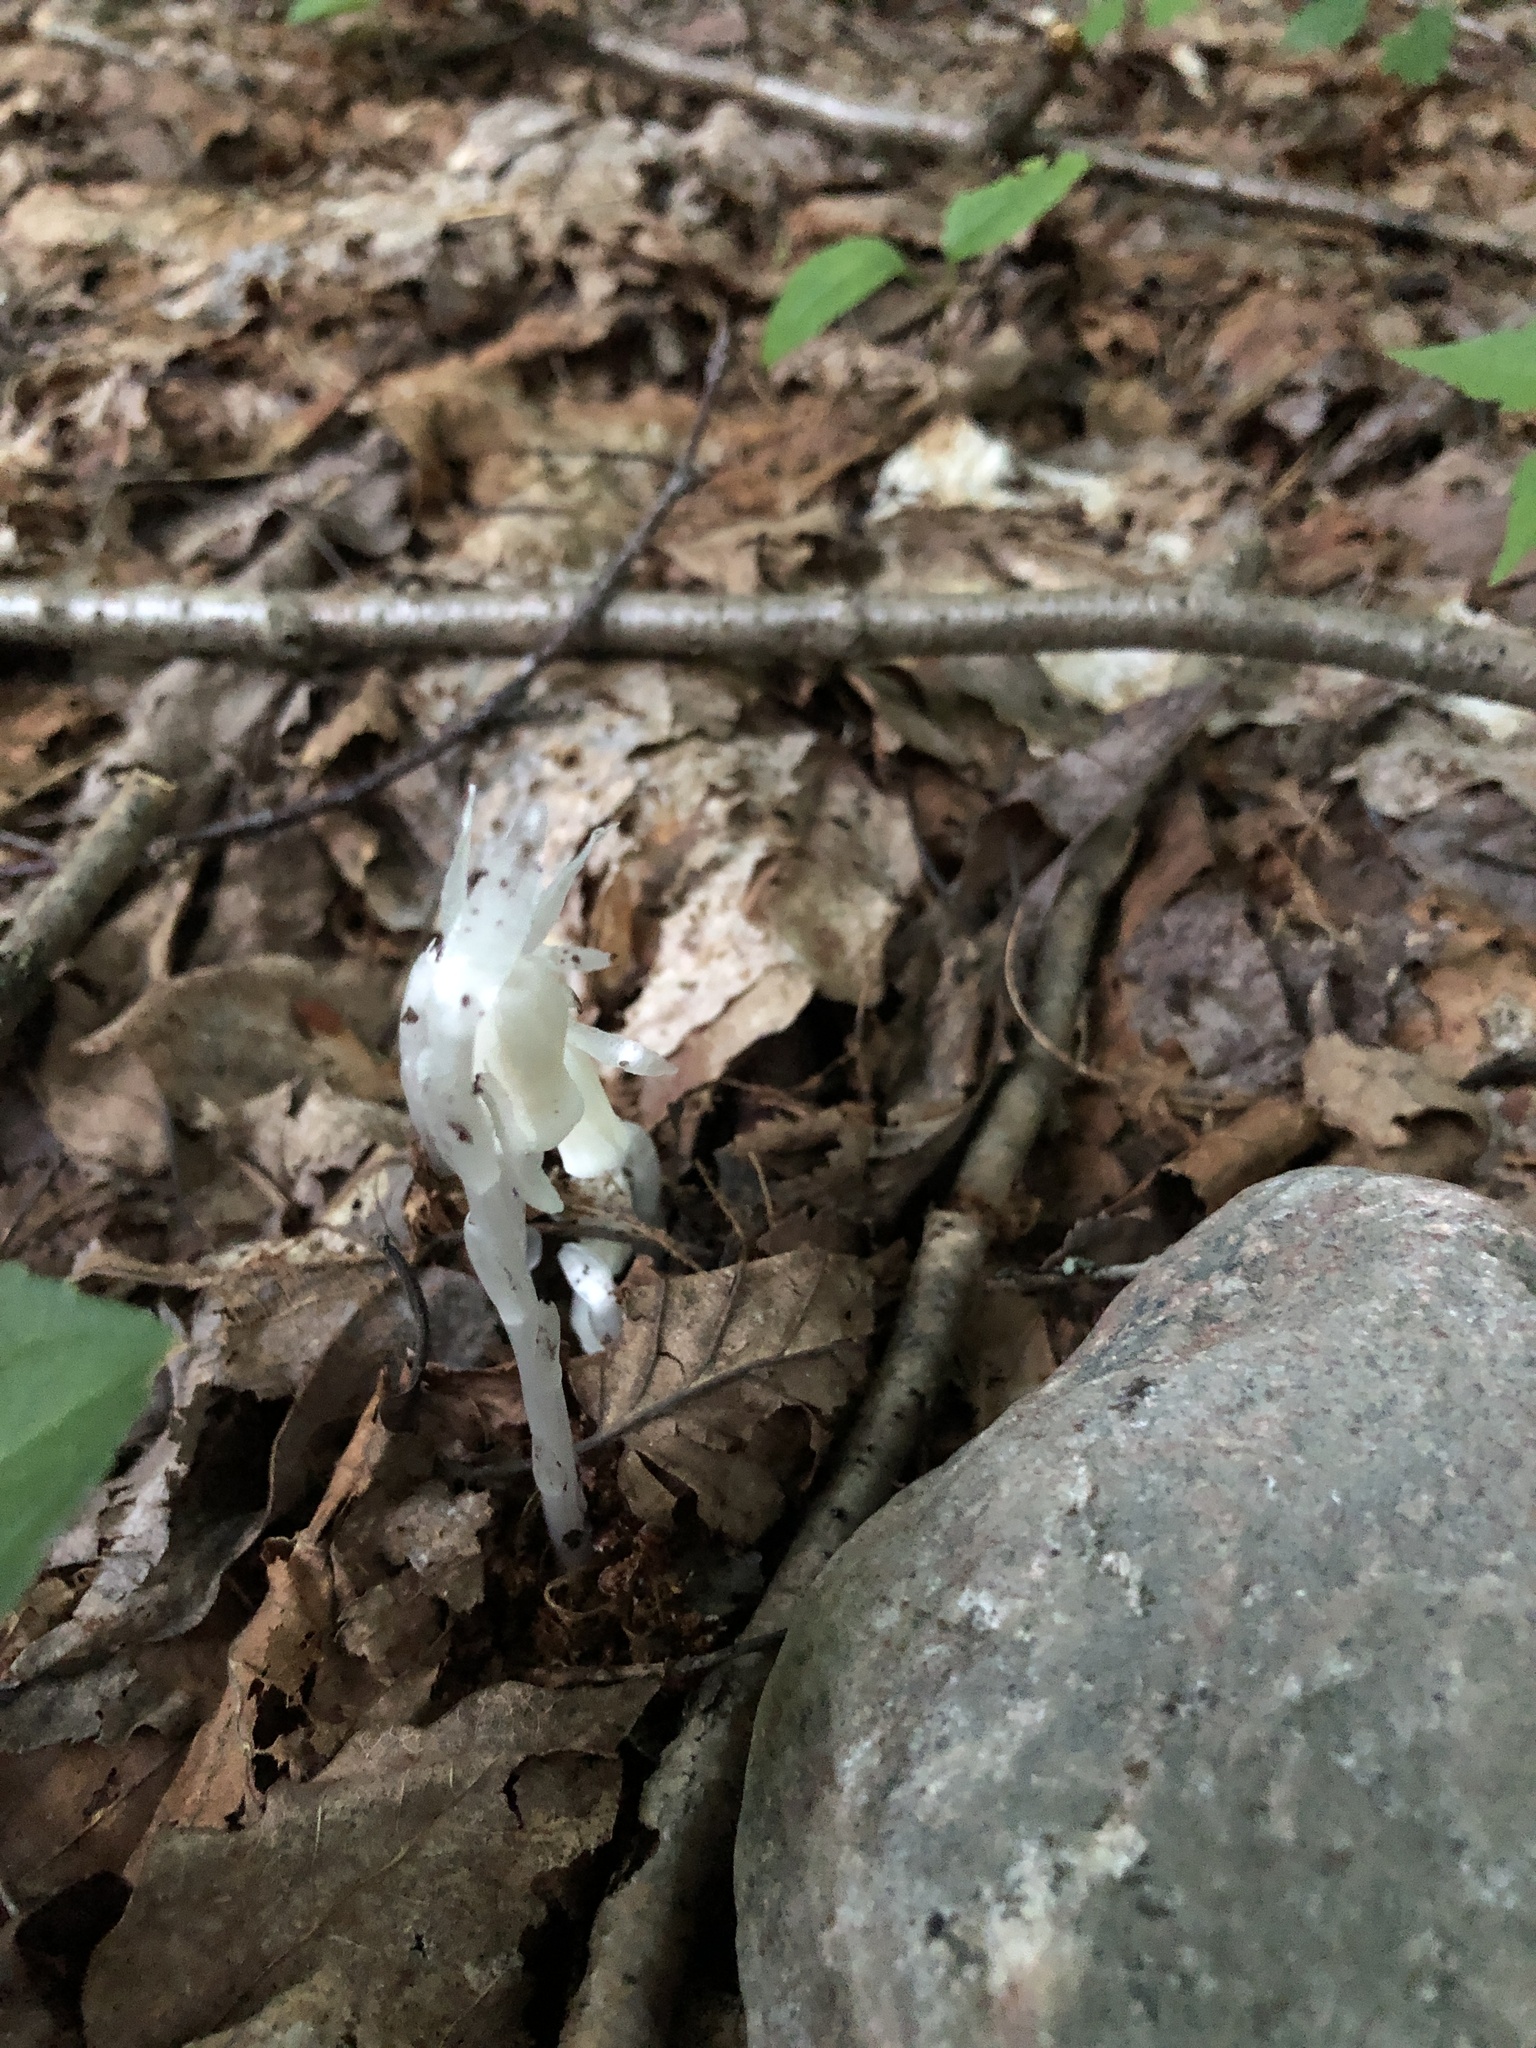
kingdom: Plantae
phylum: Tracheophyta
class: Magnoliopsida
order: Ericales
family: Ericaceae
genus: Monotropa
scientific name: Monotropa uniflora
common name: Convulsion root
